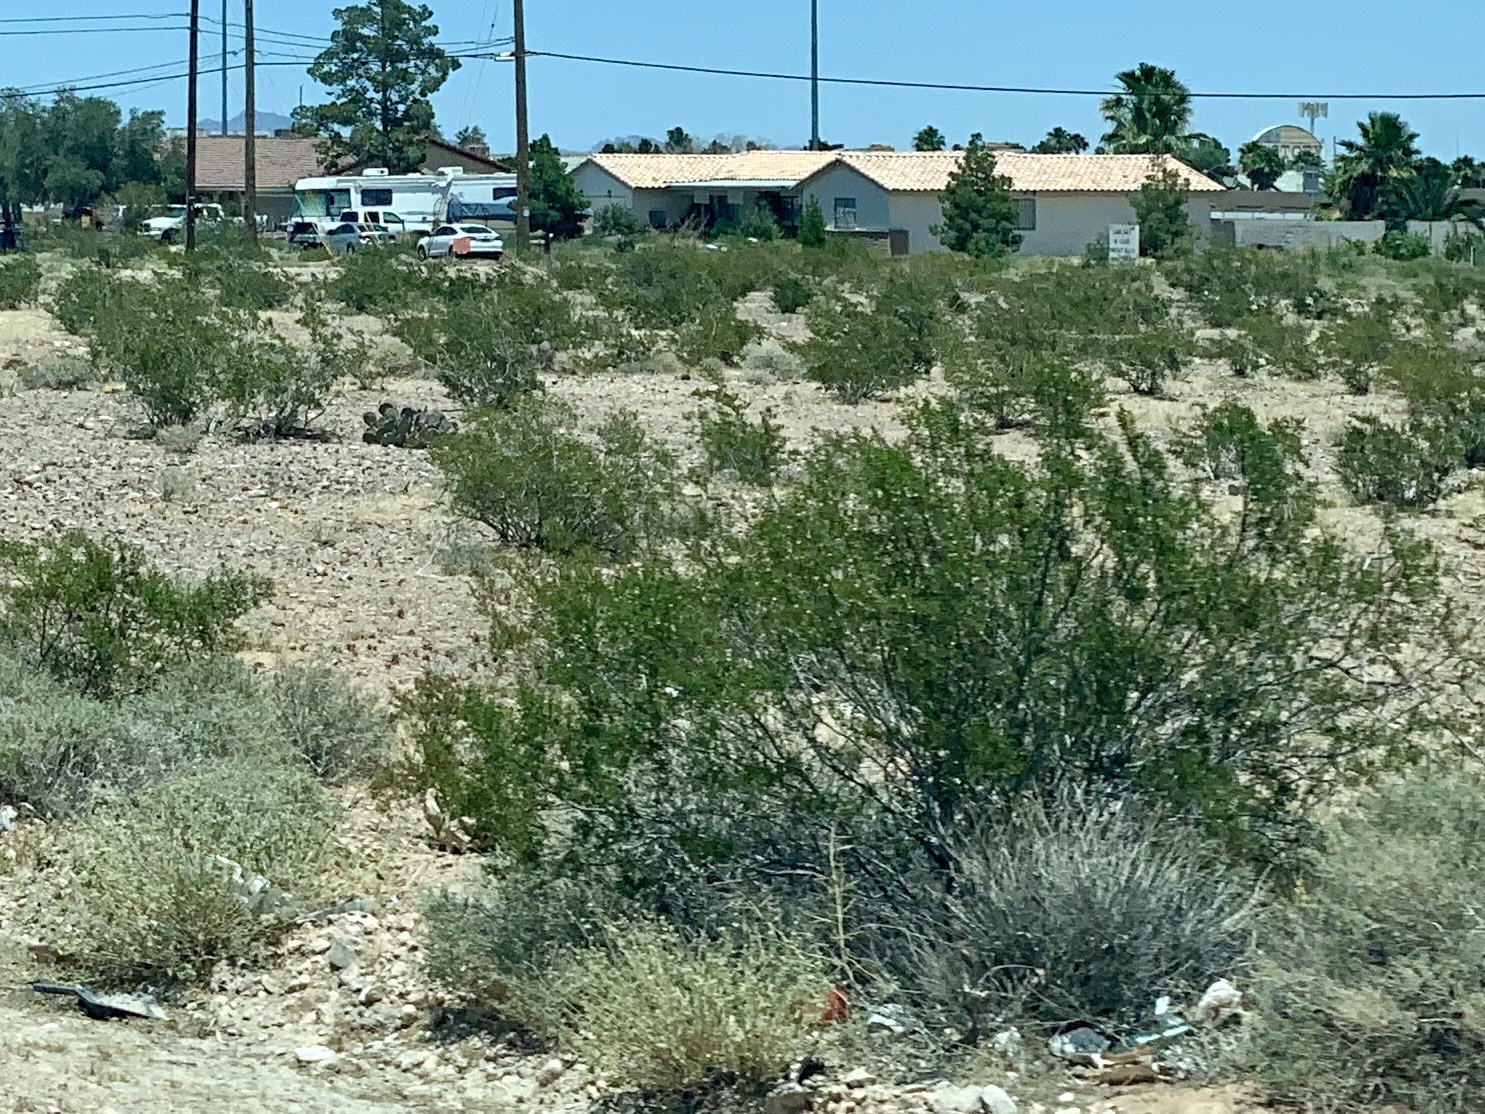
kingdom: Plantae
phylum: Tracheophyta
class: Magnoliopsida
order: Zygophyllales
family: Zygophyllaceae
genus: Larrea
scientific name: Larrea tridentata
